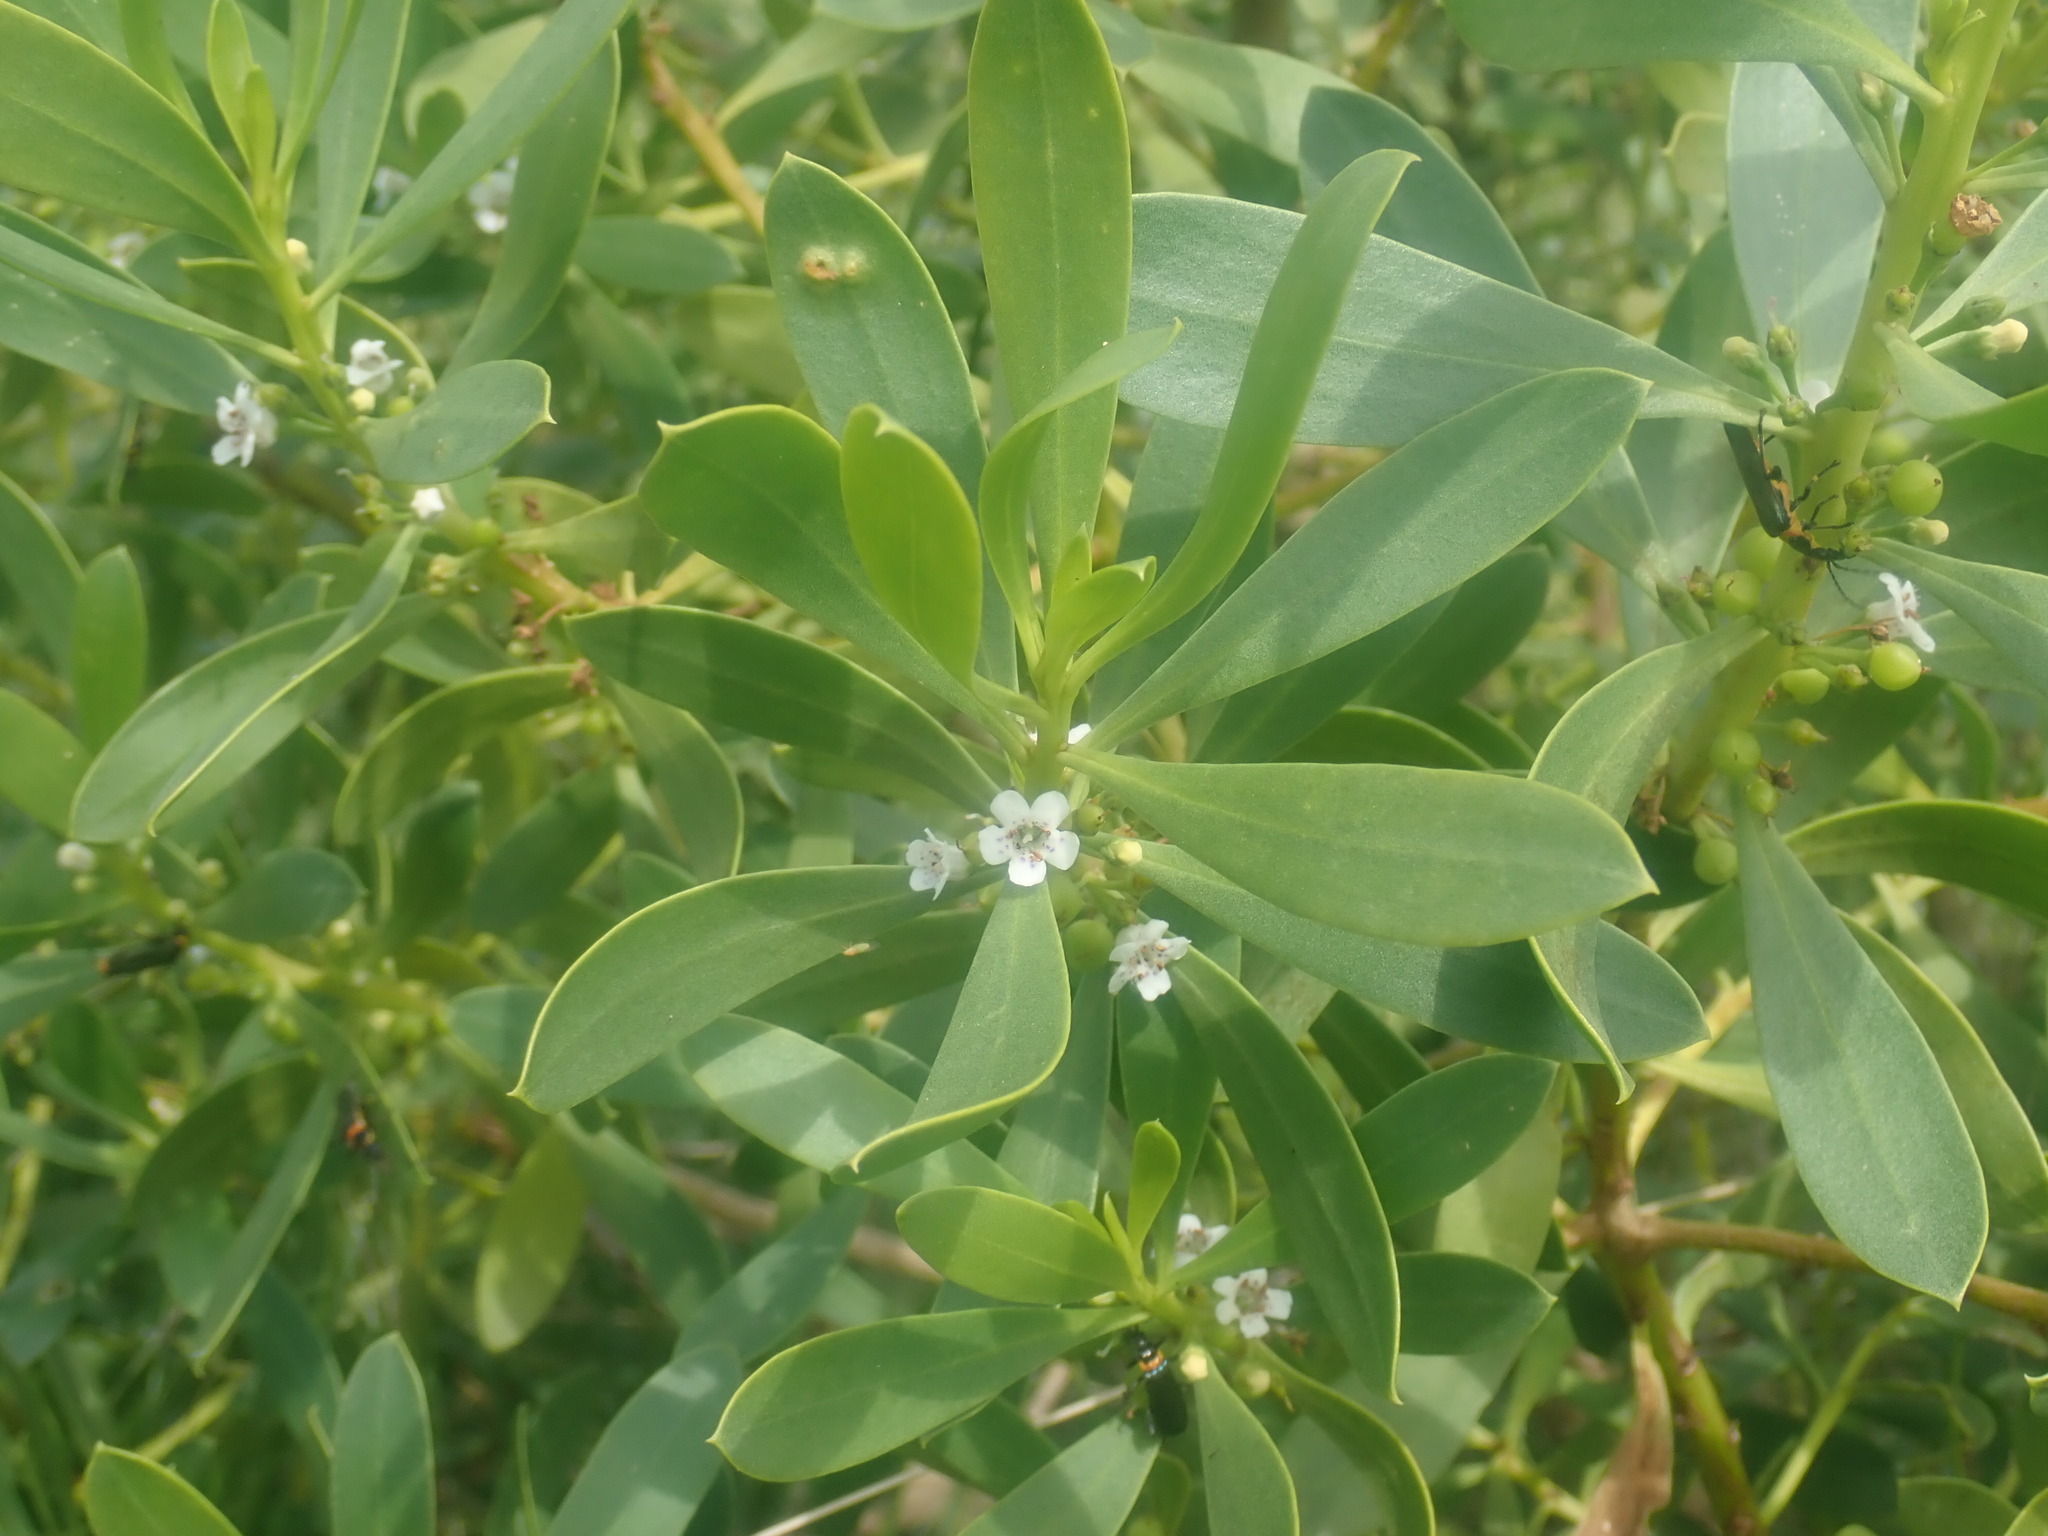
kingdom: Plantae
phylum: Tracheophyta
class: Magnoliopsida
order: Lamiales
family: Scrophulariaceae
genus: Myoporum
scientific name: Myoporum insulare
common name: Common boobialla
